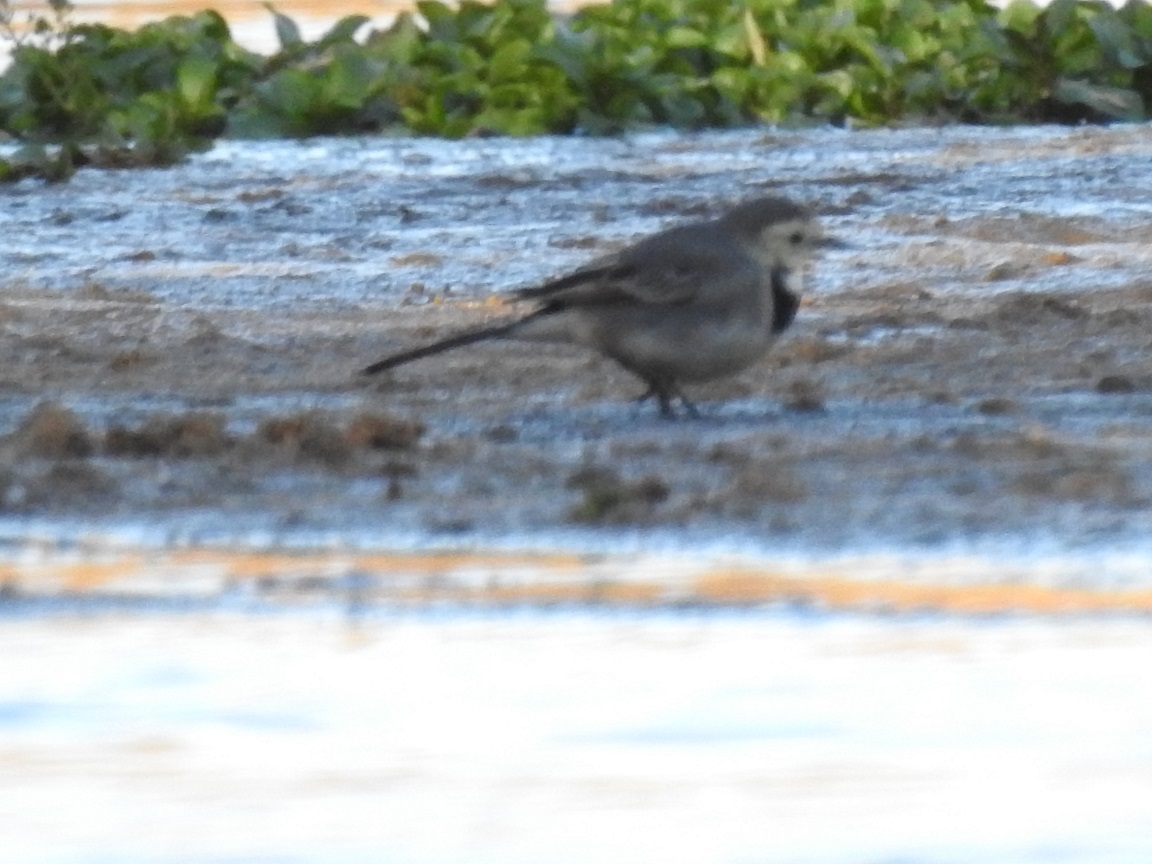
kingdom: Animalia
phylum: Chordata
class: Aves
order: Passeriformes
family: Motacillidae
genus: Motacilla
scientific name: Motacilla alba
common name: White wagtail
